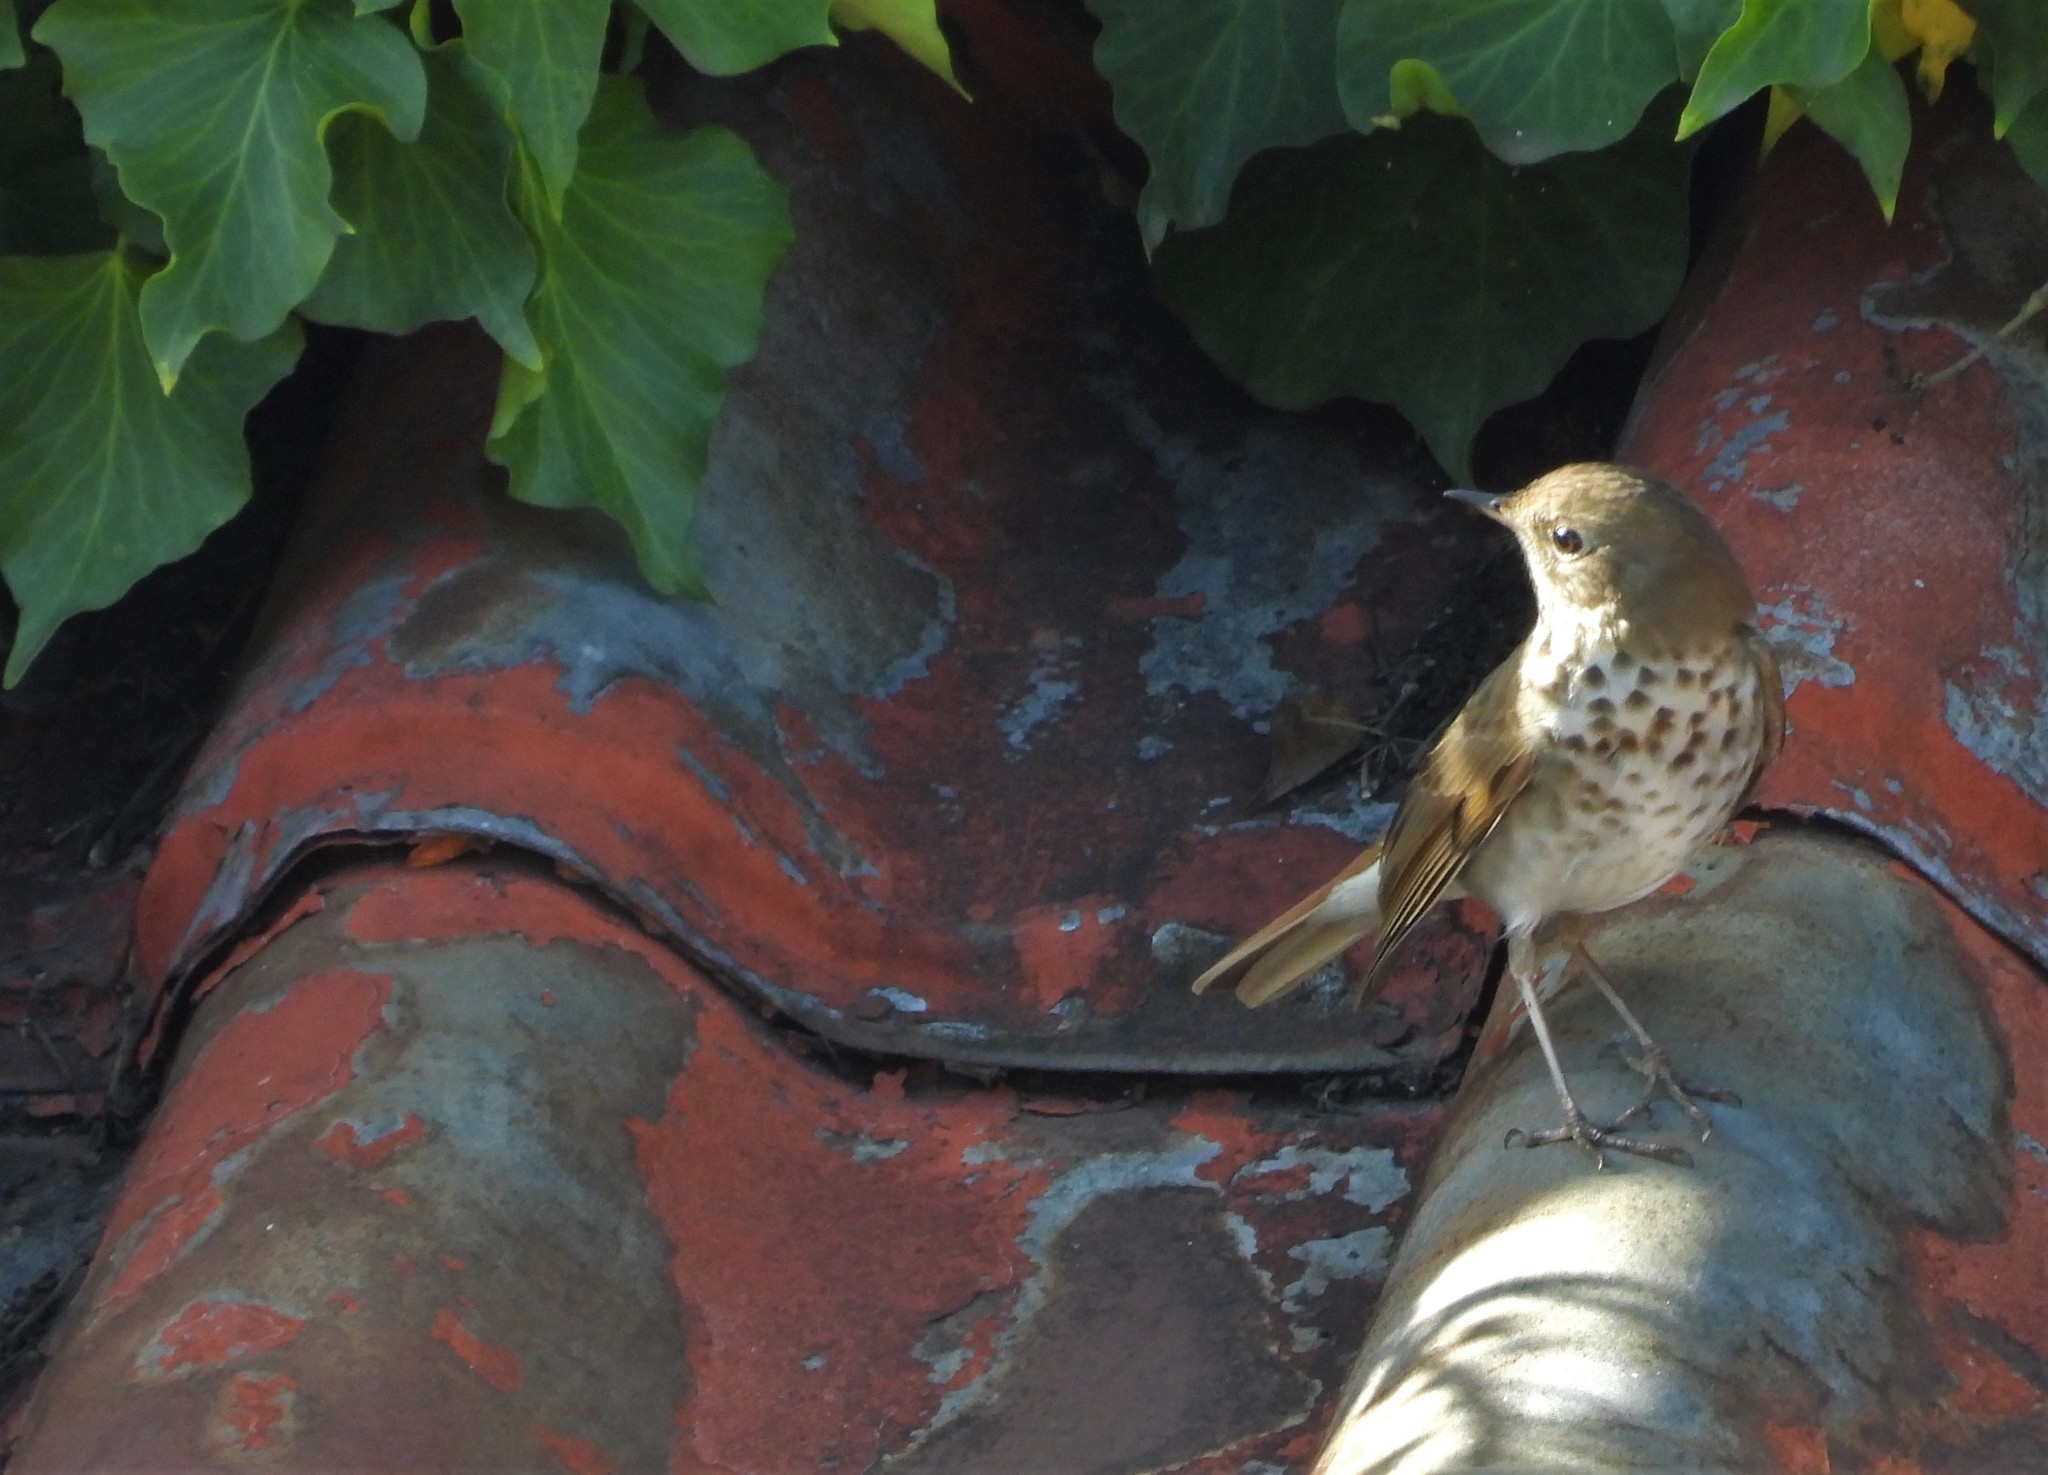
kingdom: Animalia
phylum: Chordata
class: Aves
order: Passeriformes
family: Turdidae
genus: Catharus
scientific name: Catharus guttatus
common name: Hermit thrush
